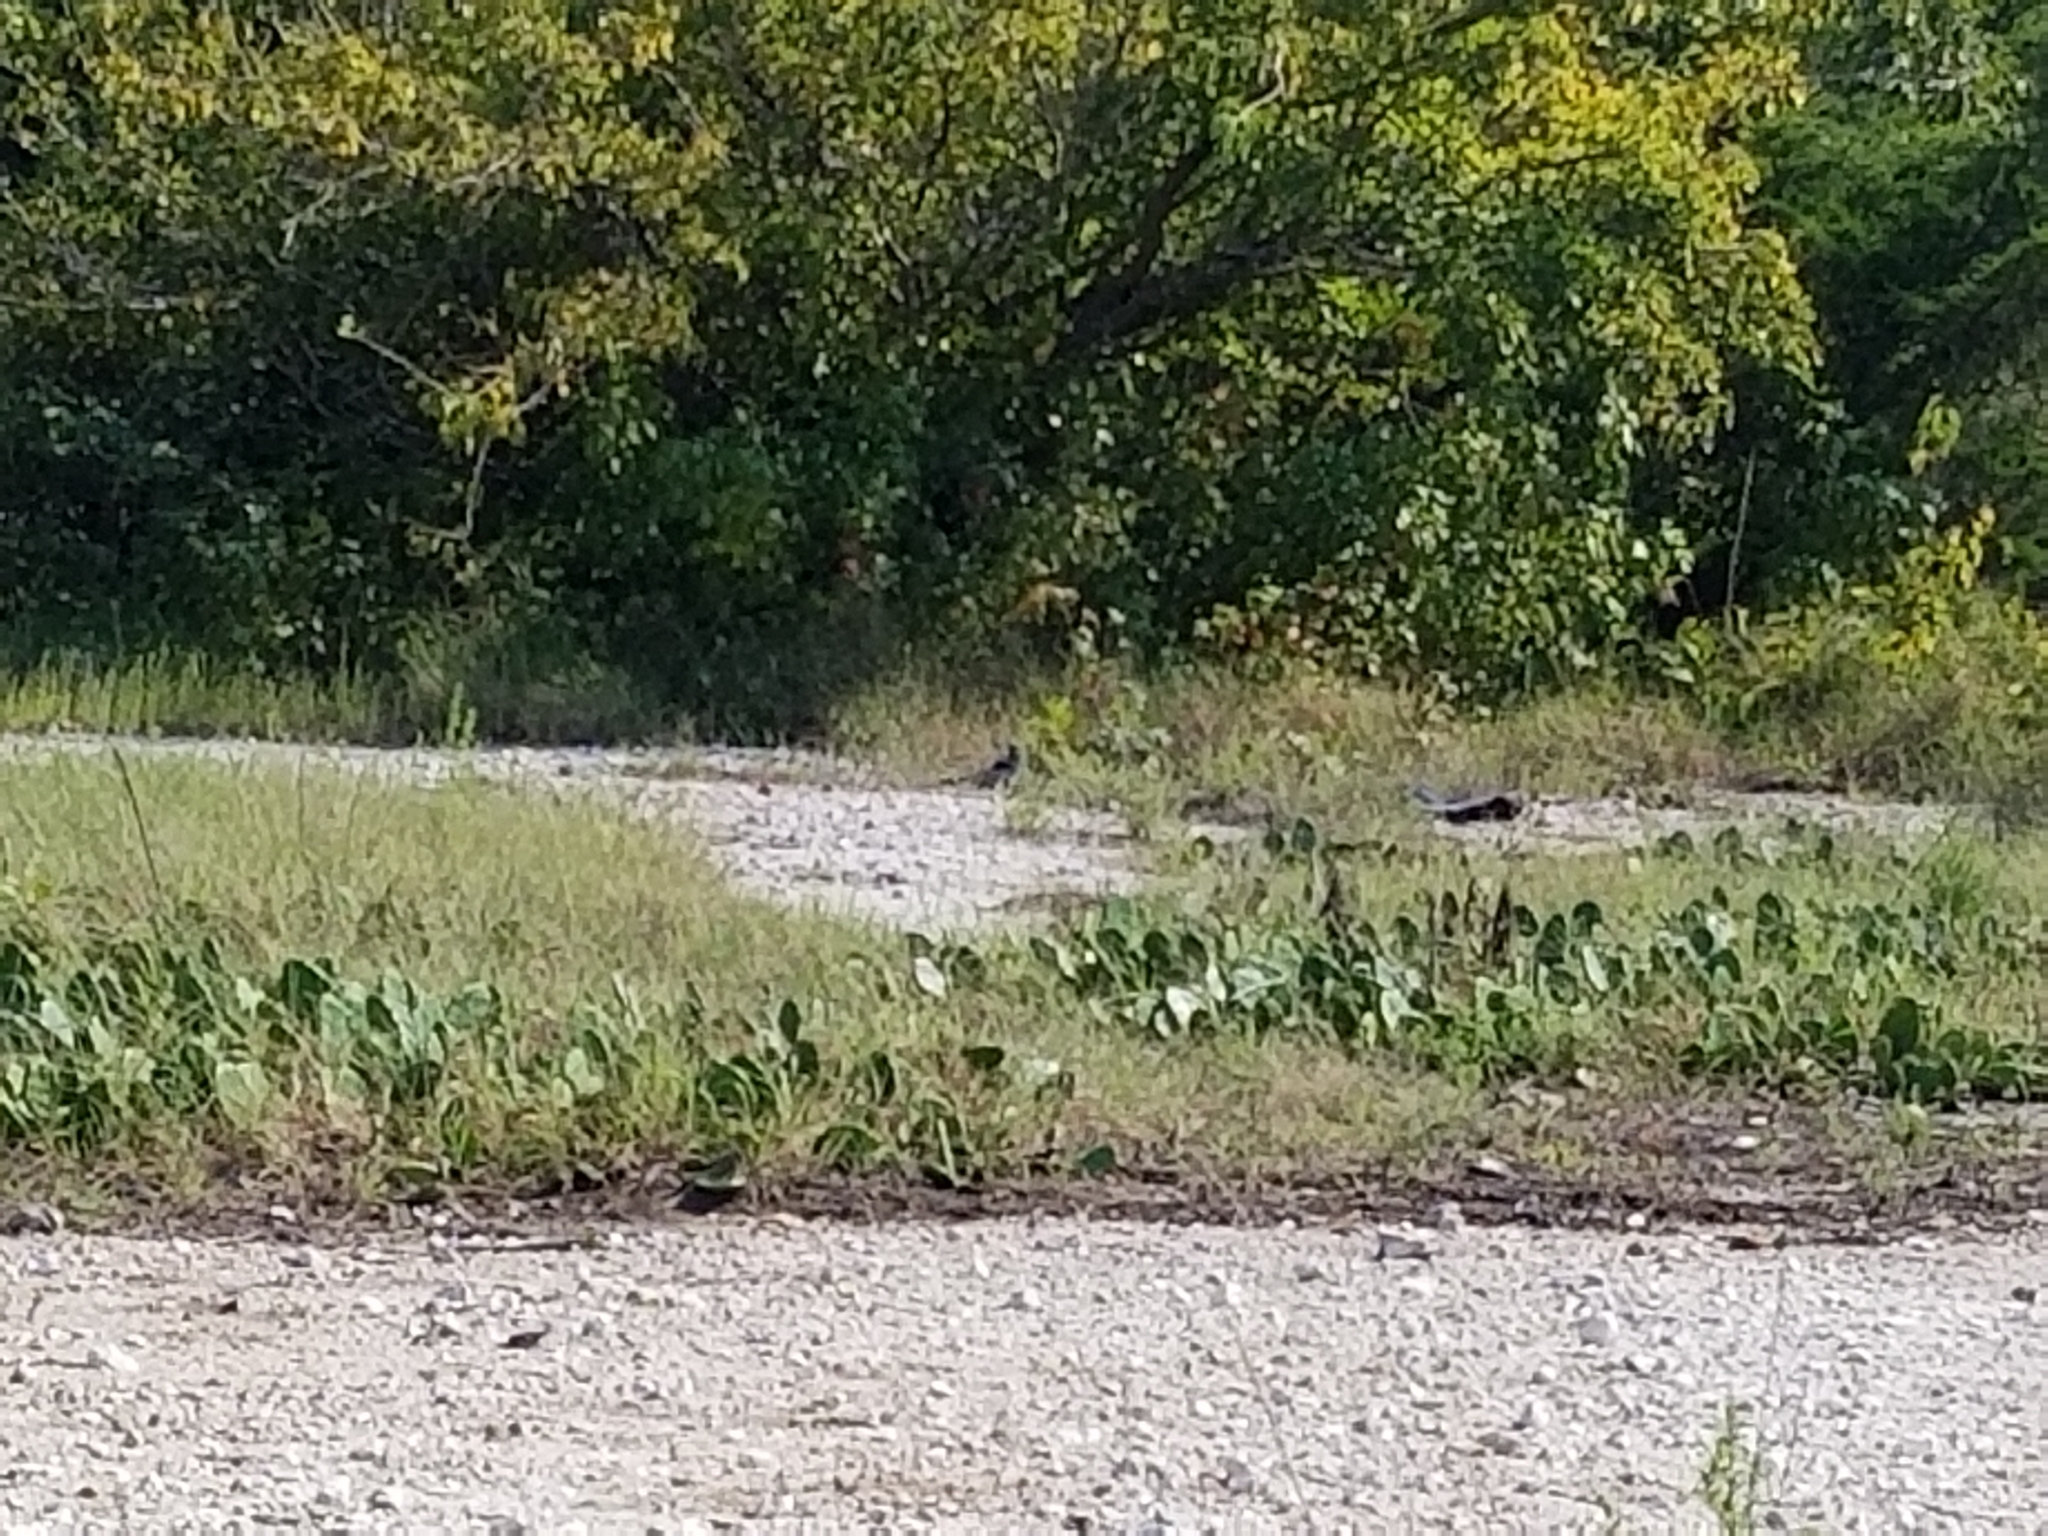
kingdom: Plantae
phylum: Tracheophyta
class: Magnoliopsida
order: Caryophyllales
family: Cactaceae
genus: Opuntia
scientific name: Opuntia humifusa
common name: Eastern prickly-pear
